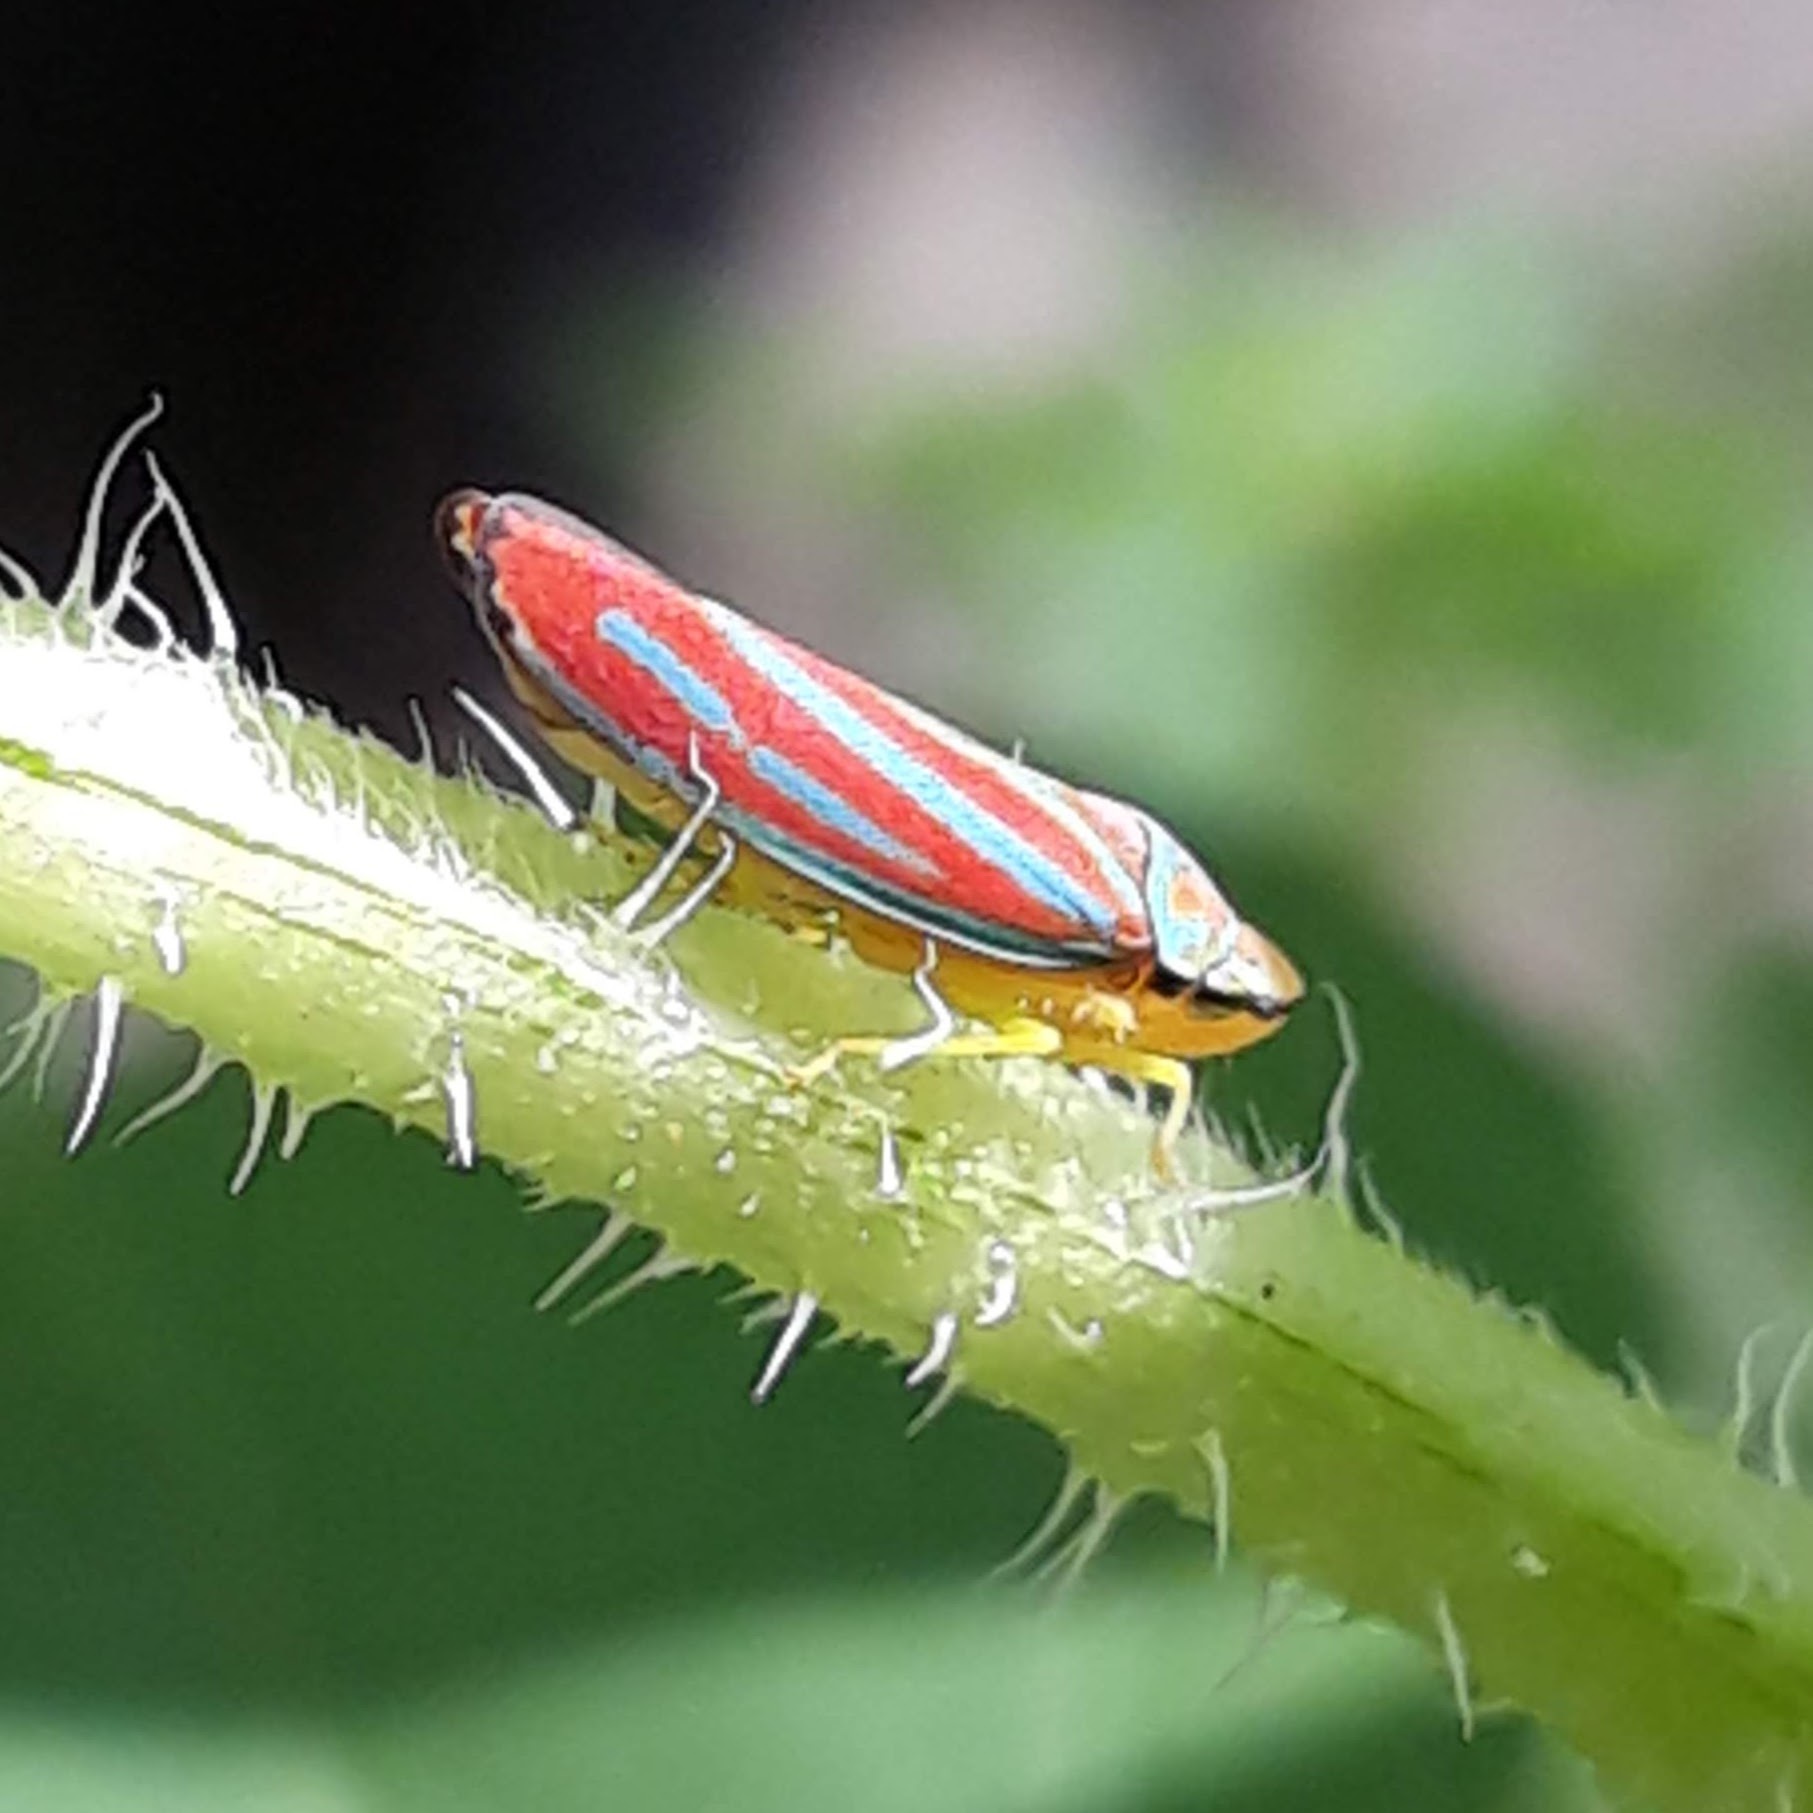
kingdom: Animalia
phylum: Arthropoda
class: Insecta
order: Hemiptera
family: Cicadellidae
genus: Graphocephala
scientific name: Graphocephala coccinea
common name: Candy-striped leafhopper
